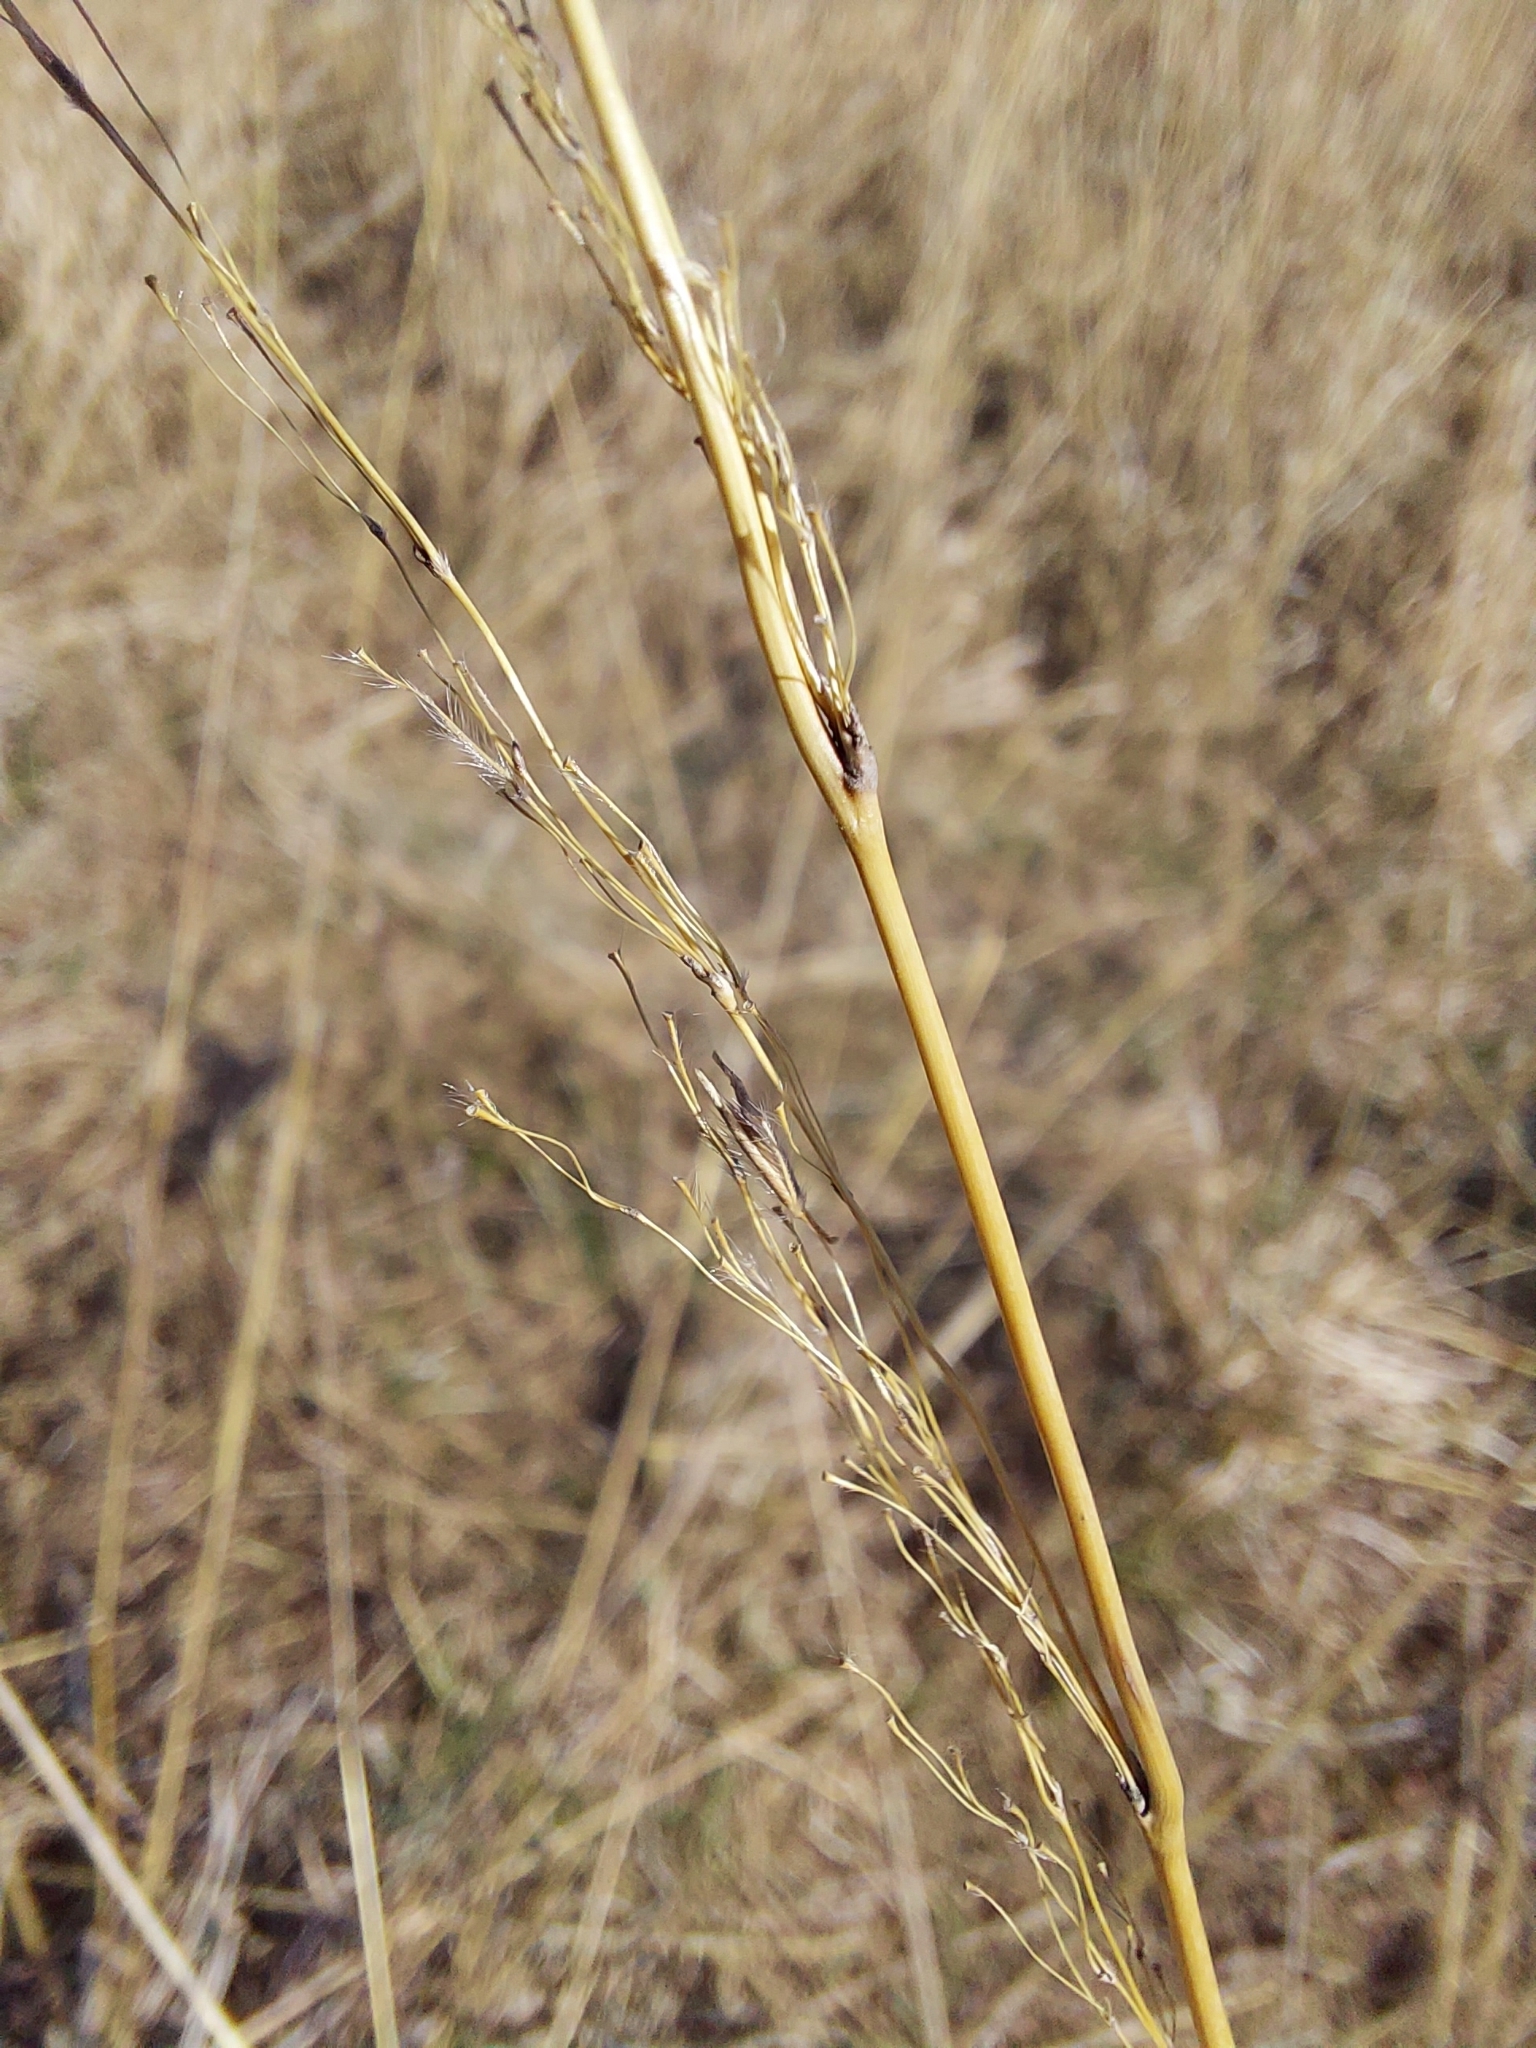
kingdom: Plantae
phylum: Tracheophyta
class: Liliopsida
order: Poales
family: Poaceae
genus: Sorghastrum
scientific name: Sorghastrum nutans
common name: Indian grass
